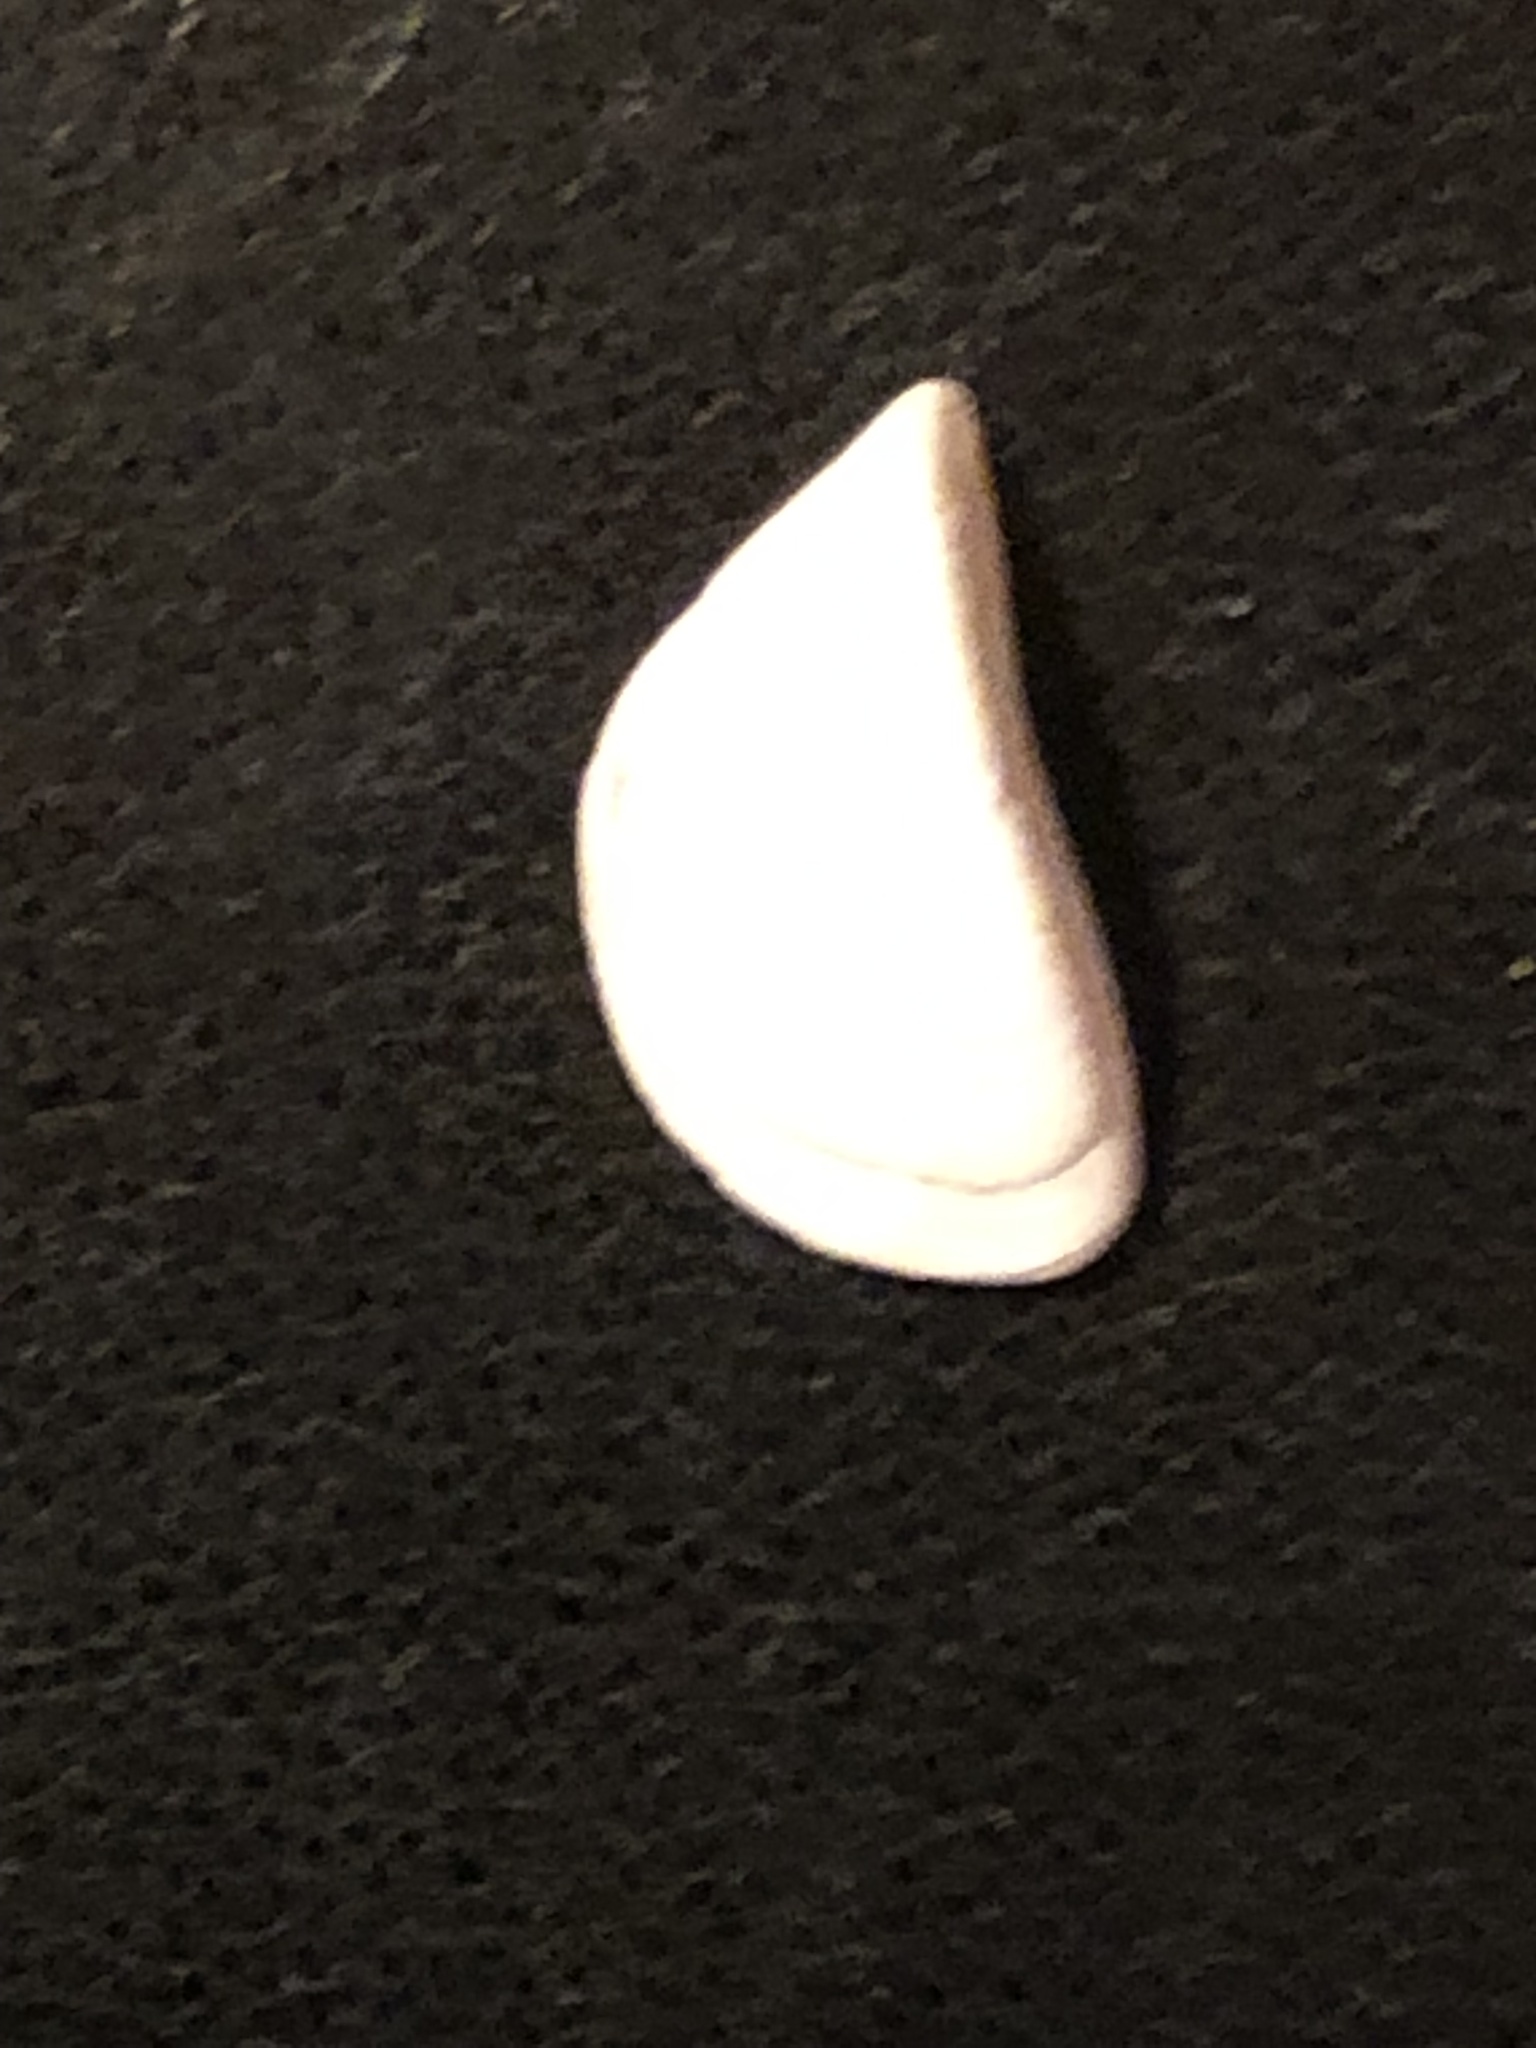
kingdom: Animalia
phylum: Mollusca
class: Bivalvia
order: Myida
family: Dreissenidae
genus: Dreissena
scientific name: Dreissena polymorpha
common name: Zebra mussel
